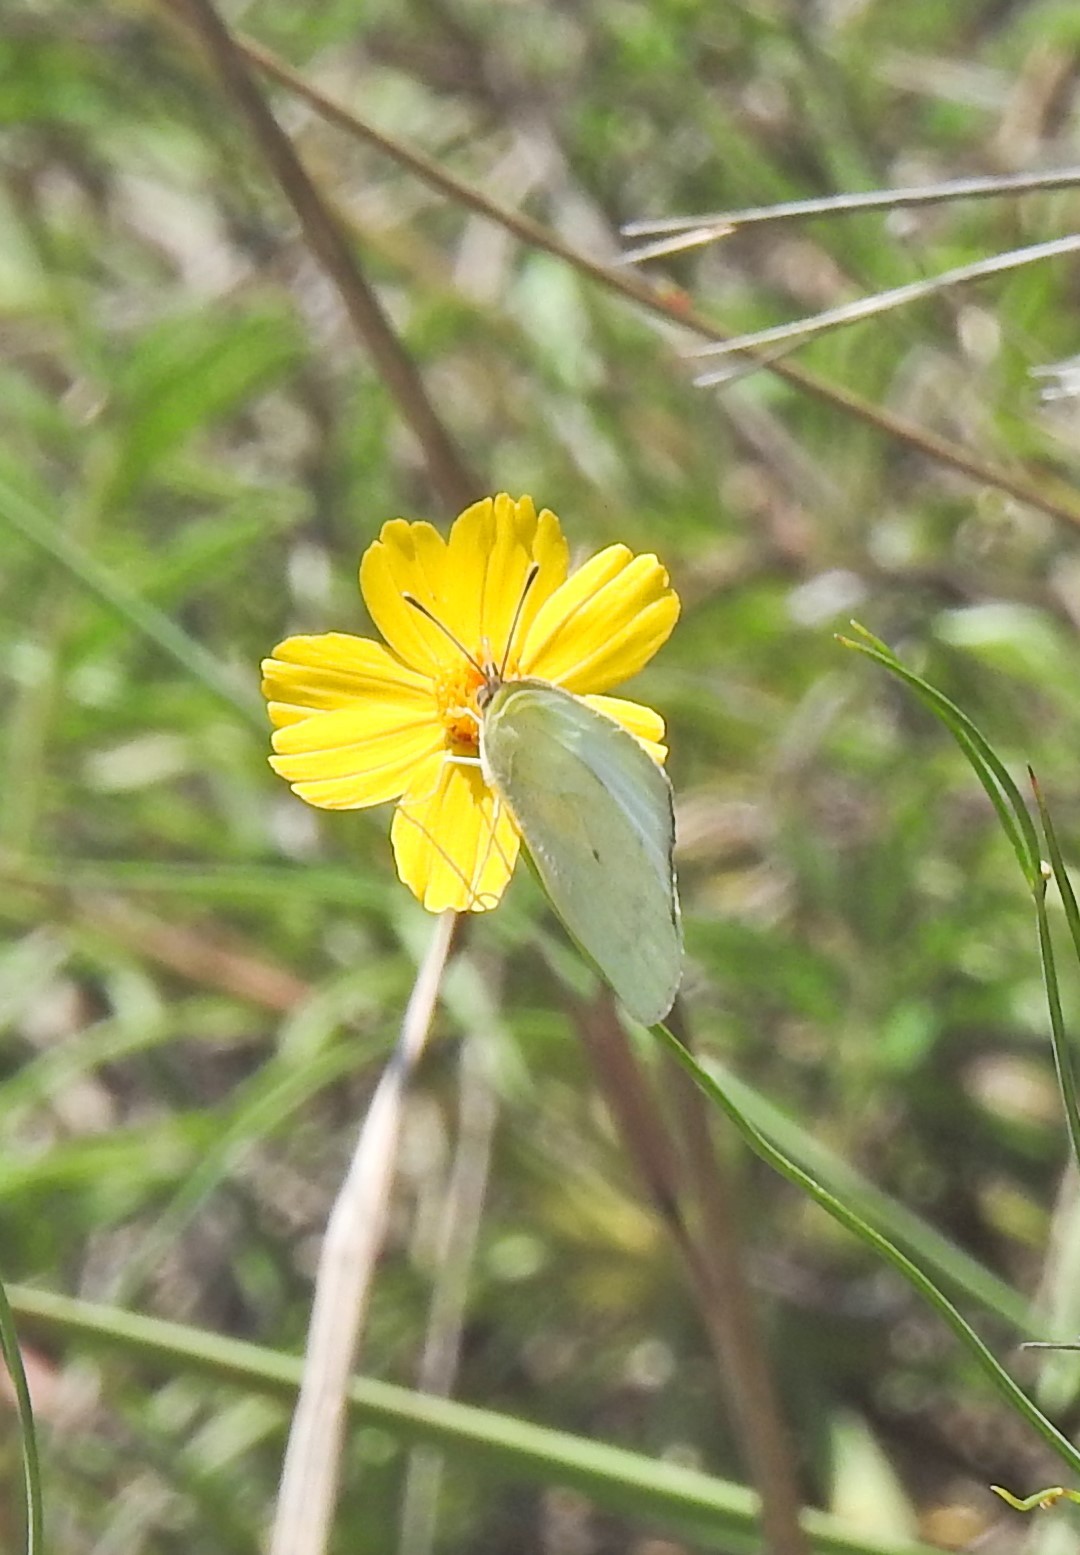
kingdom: Animalia
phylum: Arthropoda
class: Insecta
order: Lepidoptera
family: Pieridae
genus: Kricogonia
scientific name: Kricogonia lyside
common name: Guayacan sulphur,
